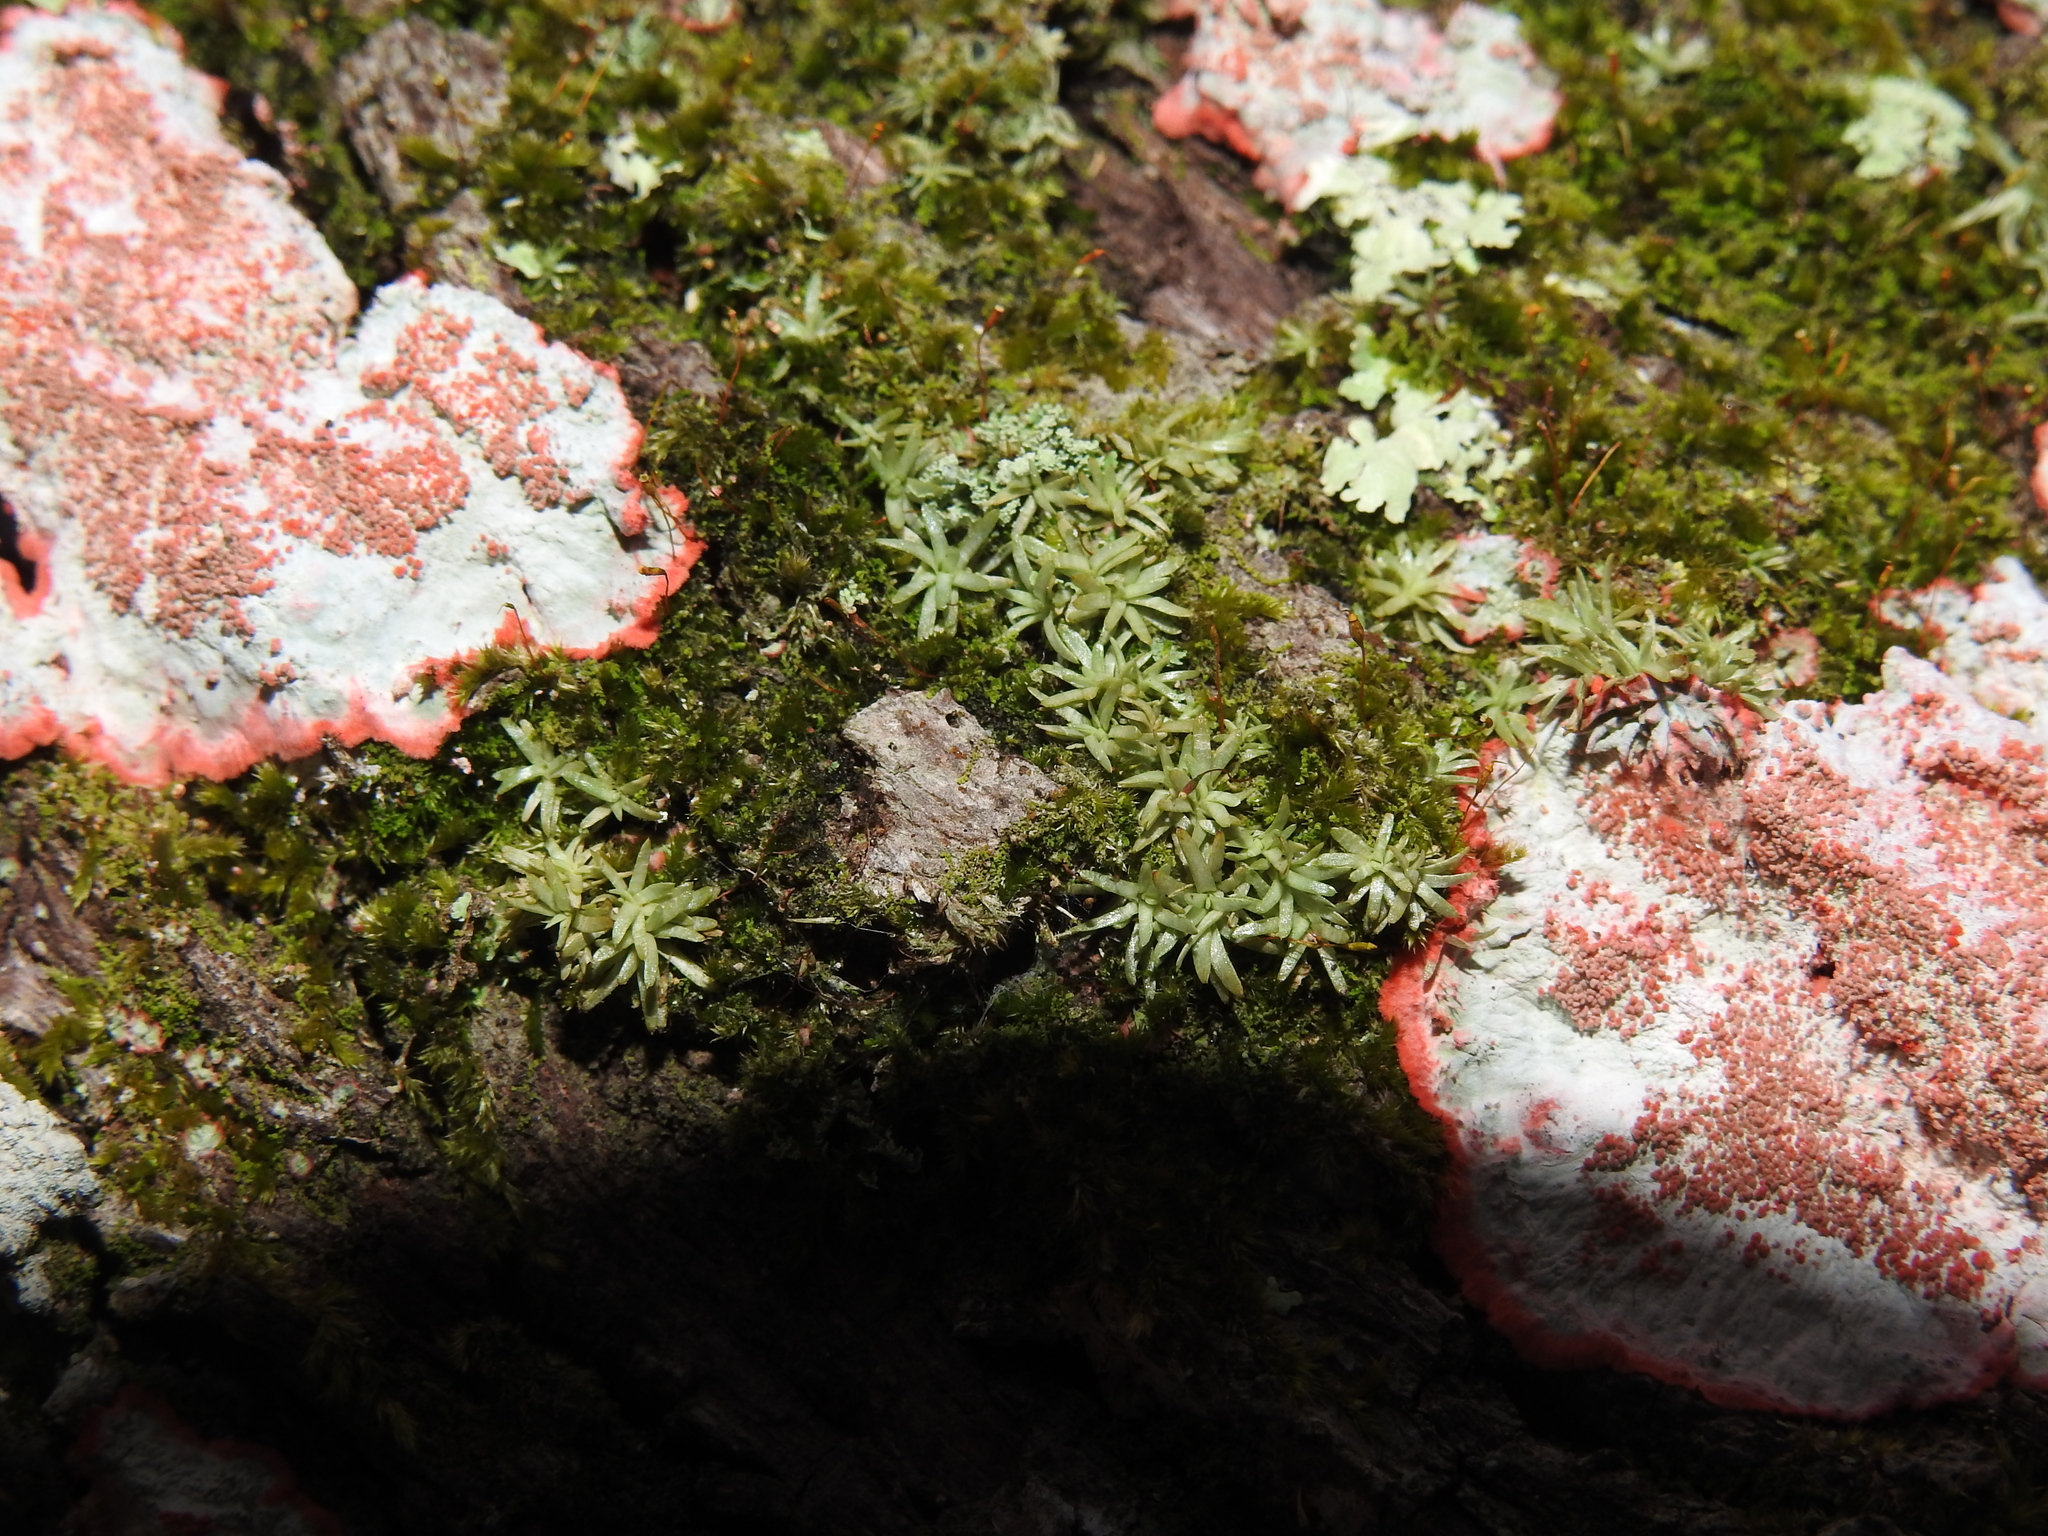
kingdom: Plantae
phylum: Bryophyta
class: Bryopsida
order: Dicranales
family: Octoblepharaceae
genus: Octoblepharum
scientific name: Octoblepharum albidum
